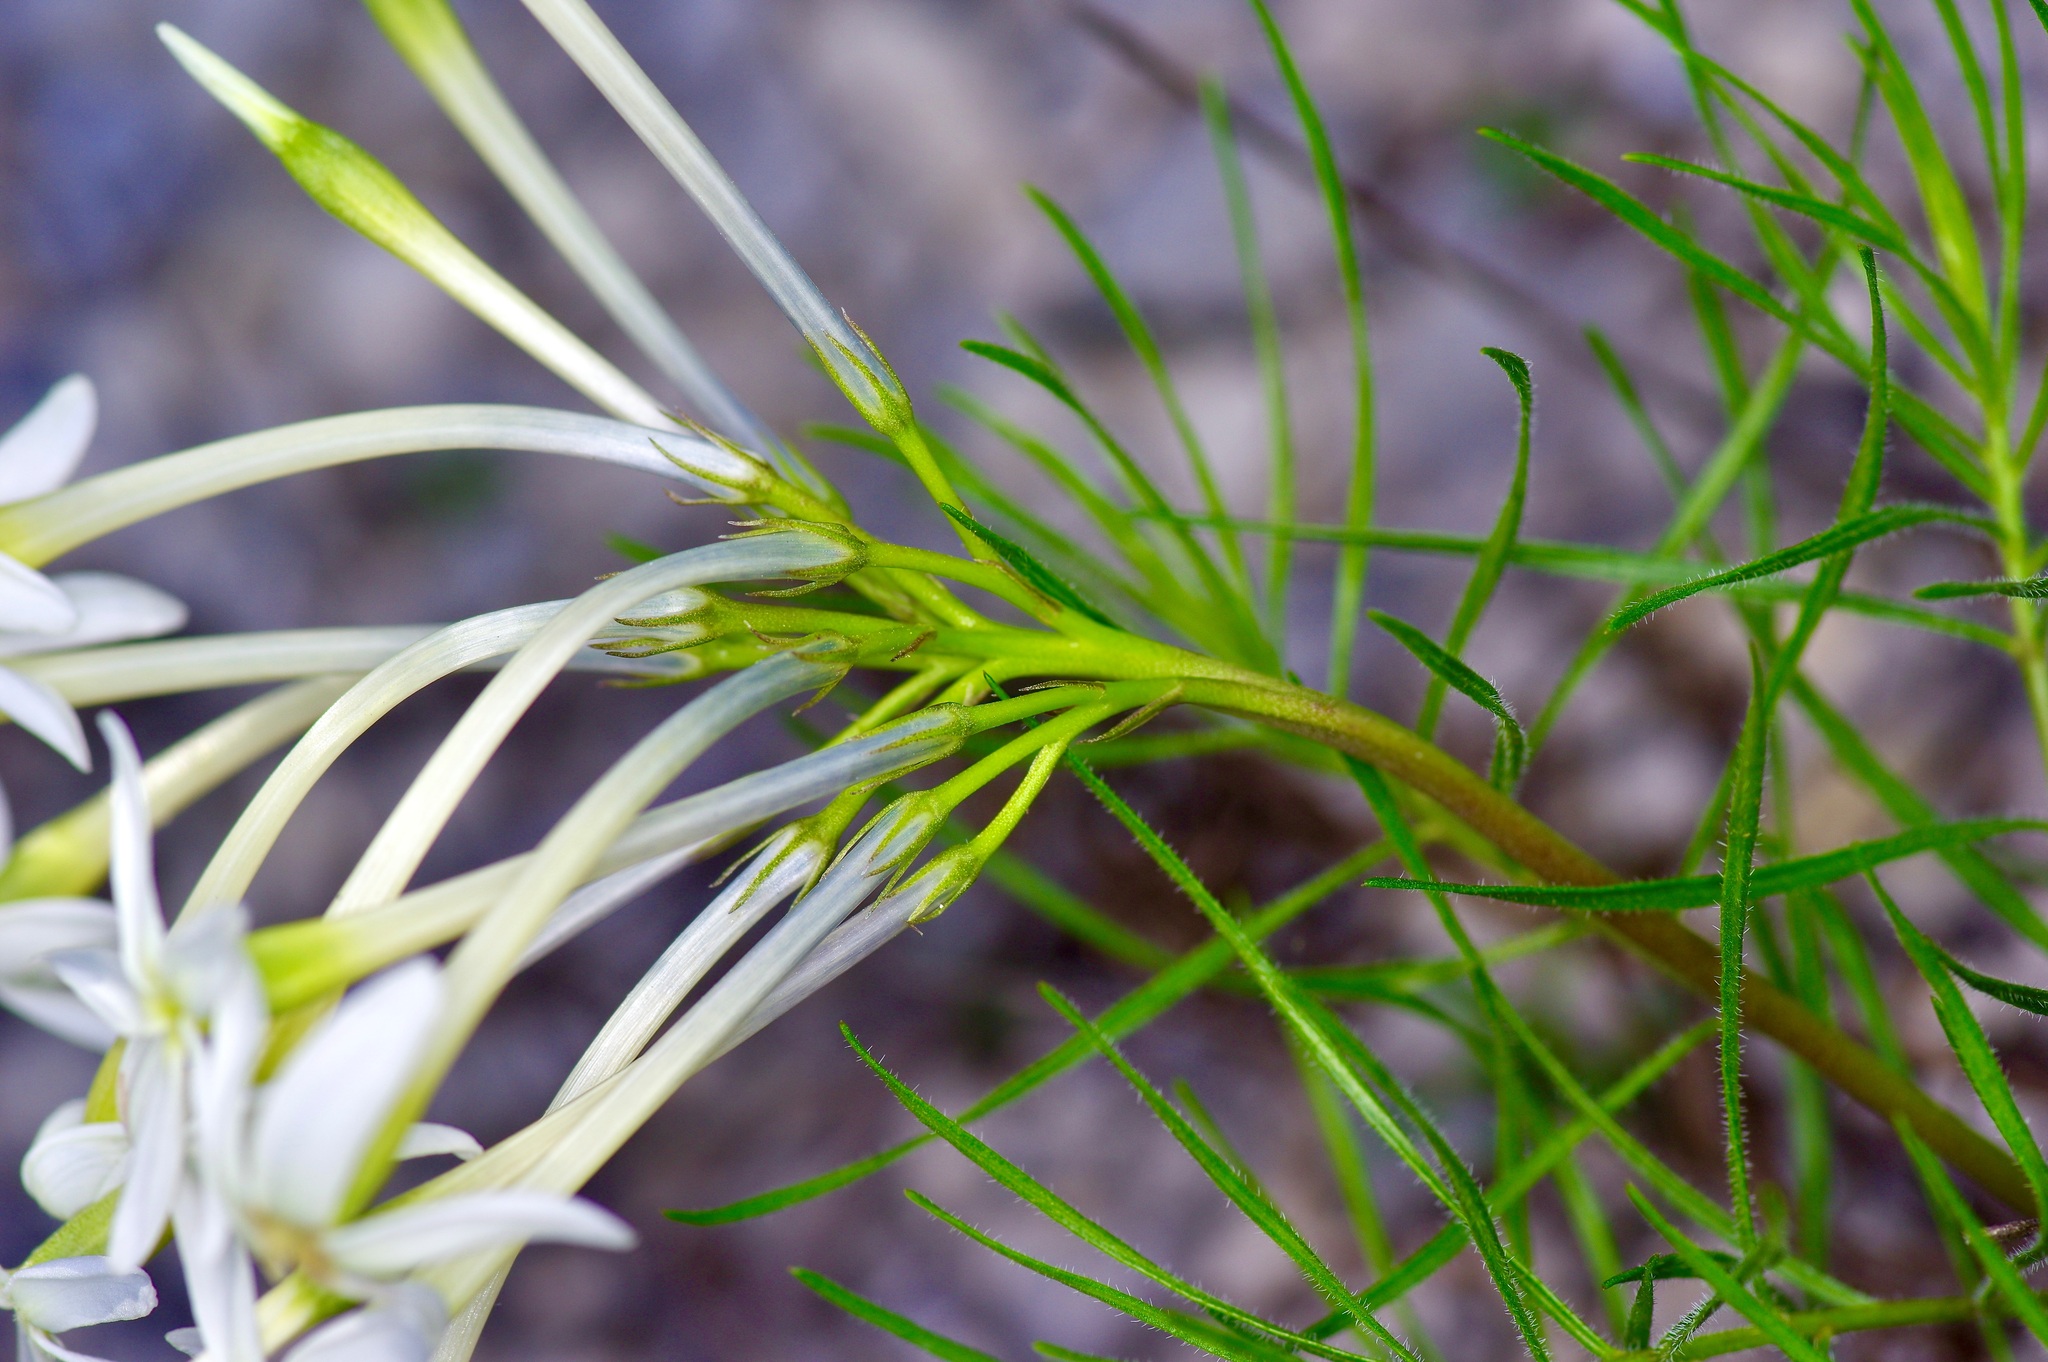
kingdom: Plantae
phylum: Tracheophyta
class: Magnoliopsida
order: Gentianales
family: Apocynaceae
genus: Amsonia
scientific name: Amsonia longiflora
